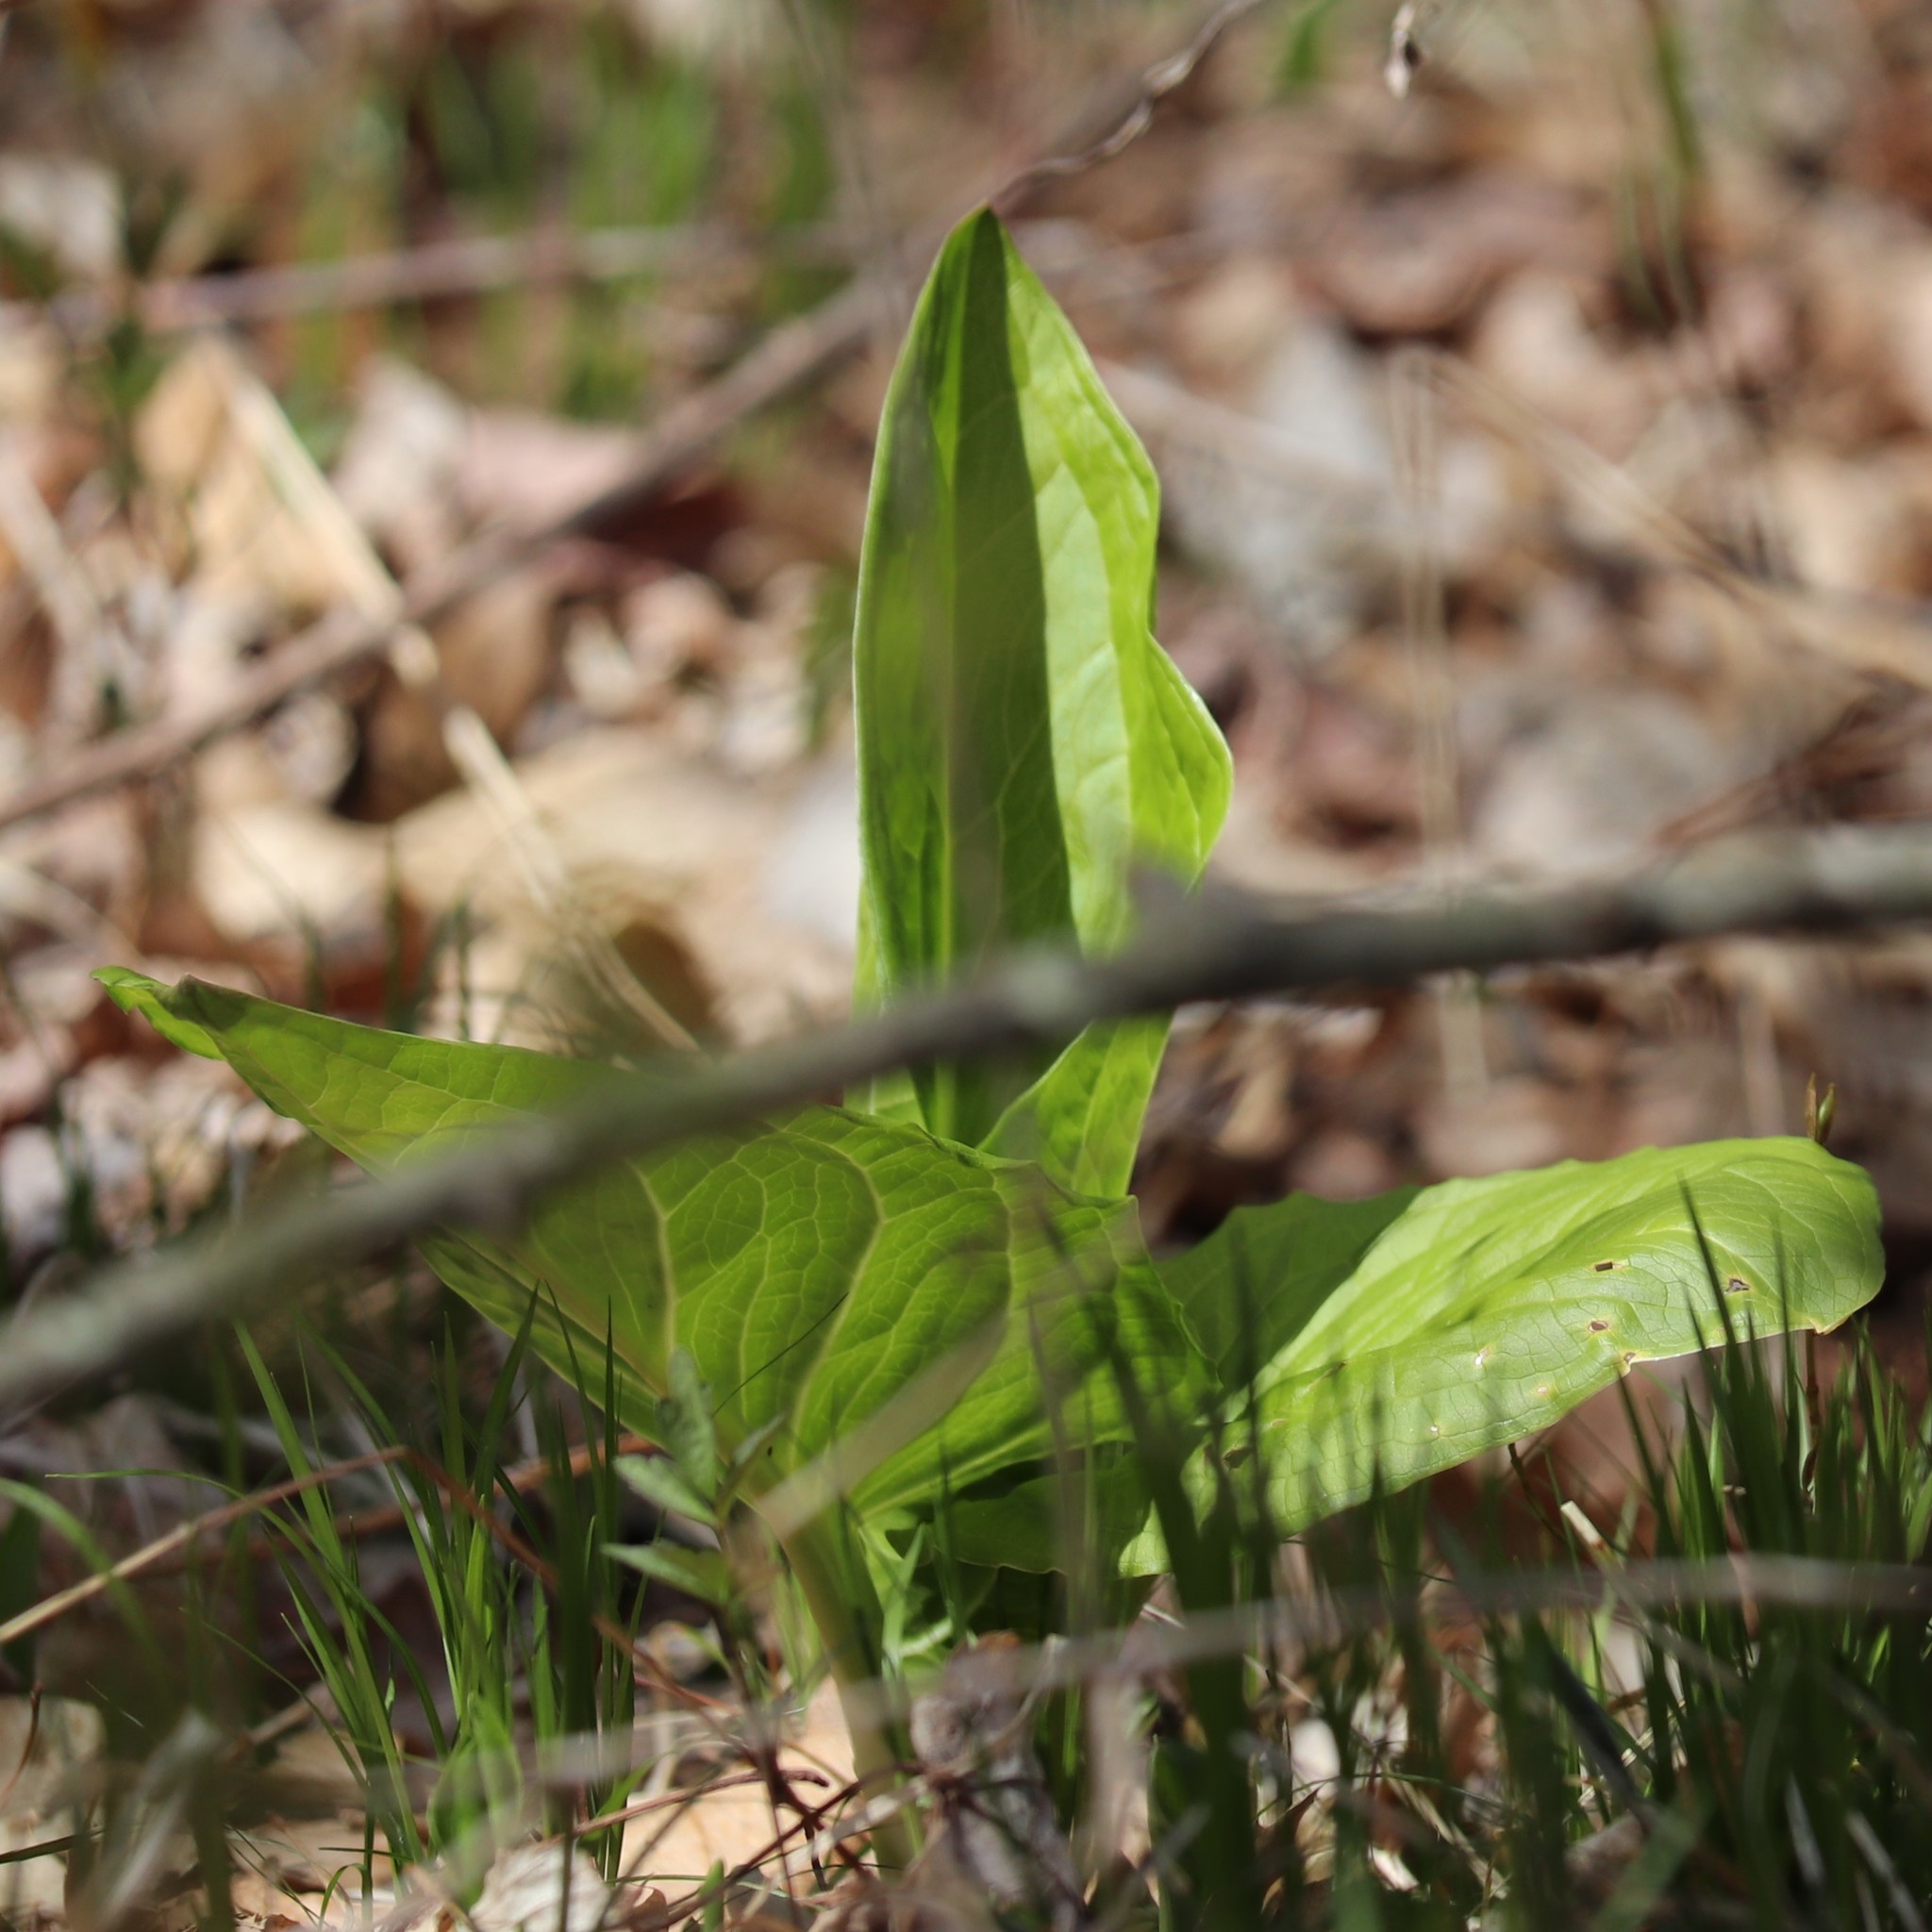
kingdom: Plantae
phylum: Tracheophyta
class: Liliopsida
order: Alismatales
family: Araceae
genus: Symplocarpus
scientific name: Symplocarpus foetidus
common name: Eastern skunk cabbage
